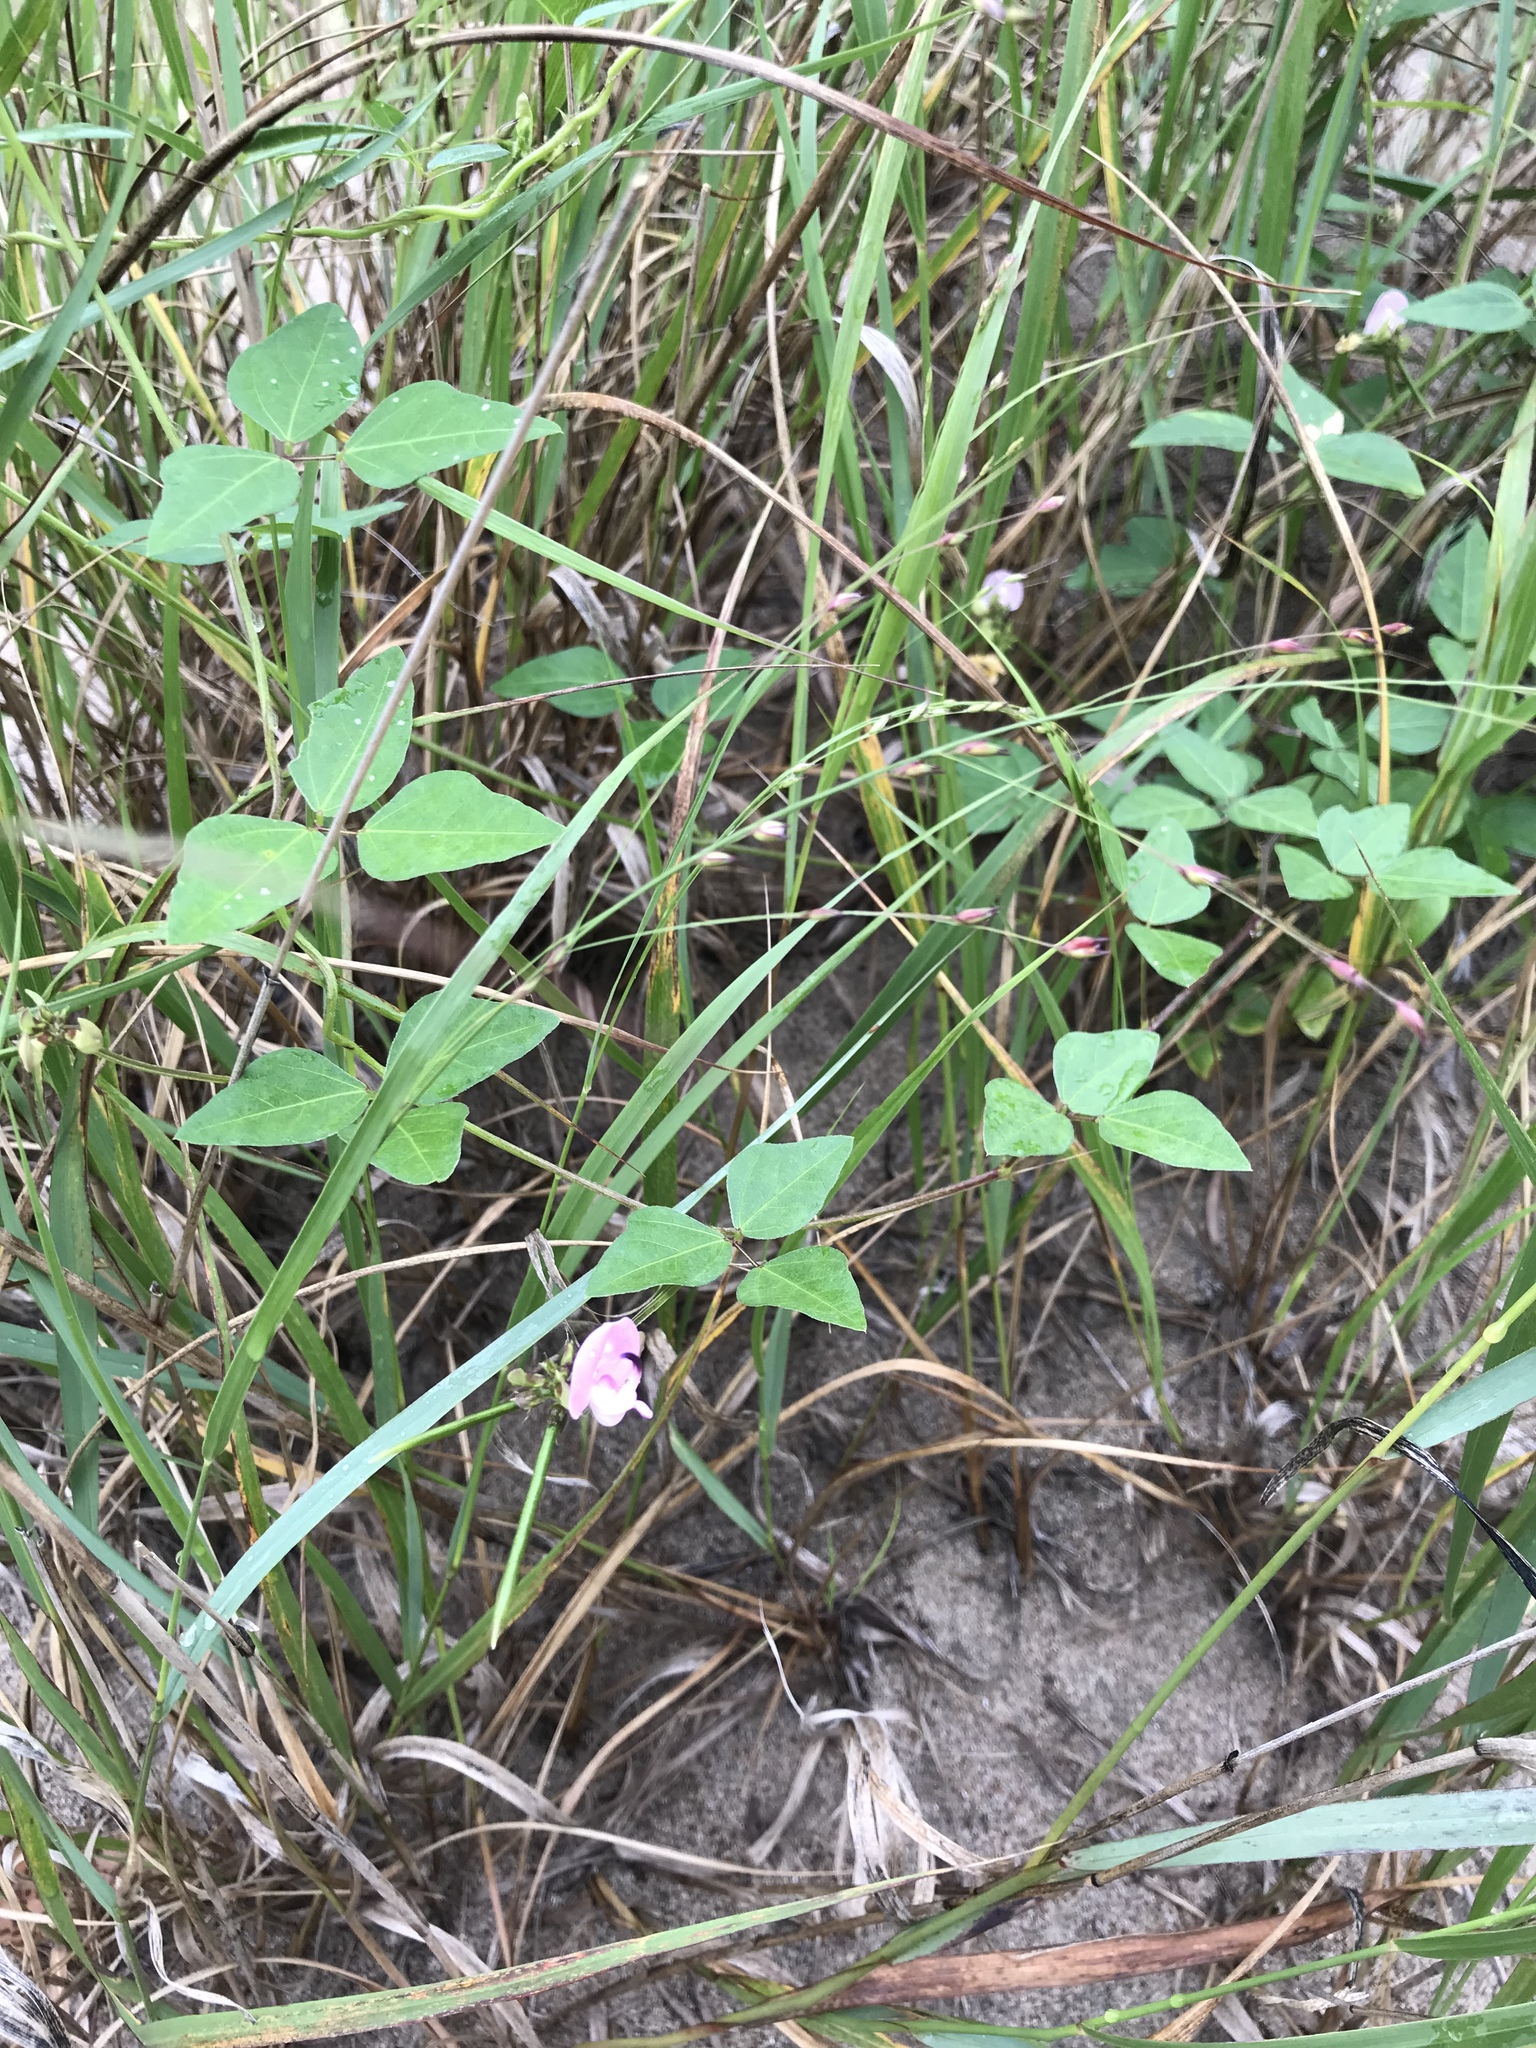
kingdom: Plantae
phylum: Tracheophyta
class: Magnoliopsida
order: Fabales
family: Fabaceae
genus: Strophostyles
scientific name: Strophostyles helvola
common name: Trailing wild bean
